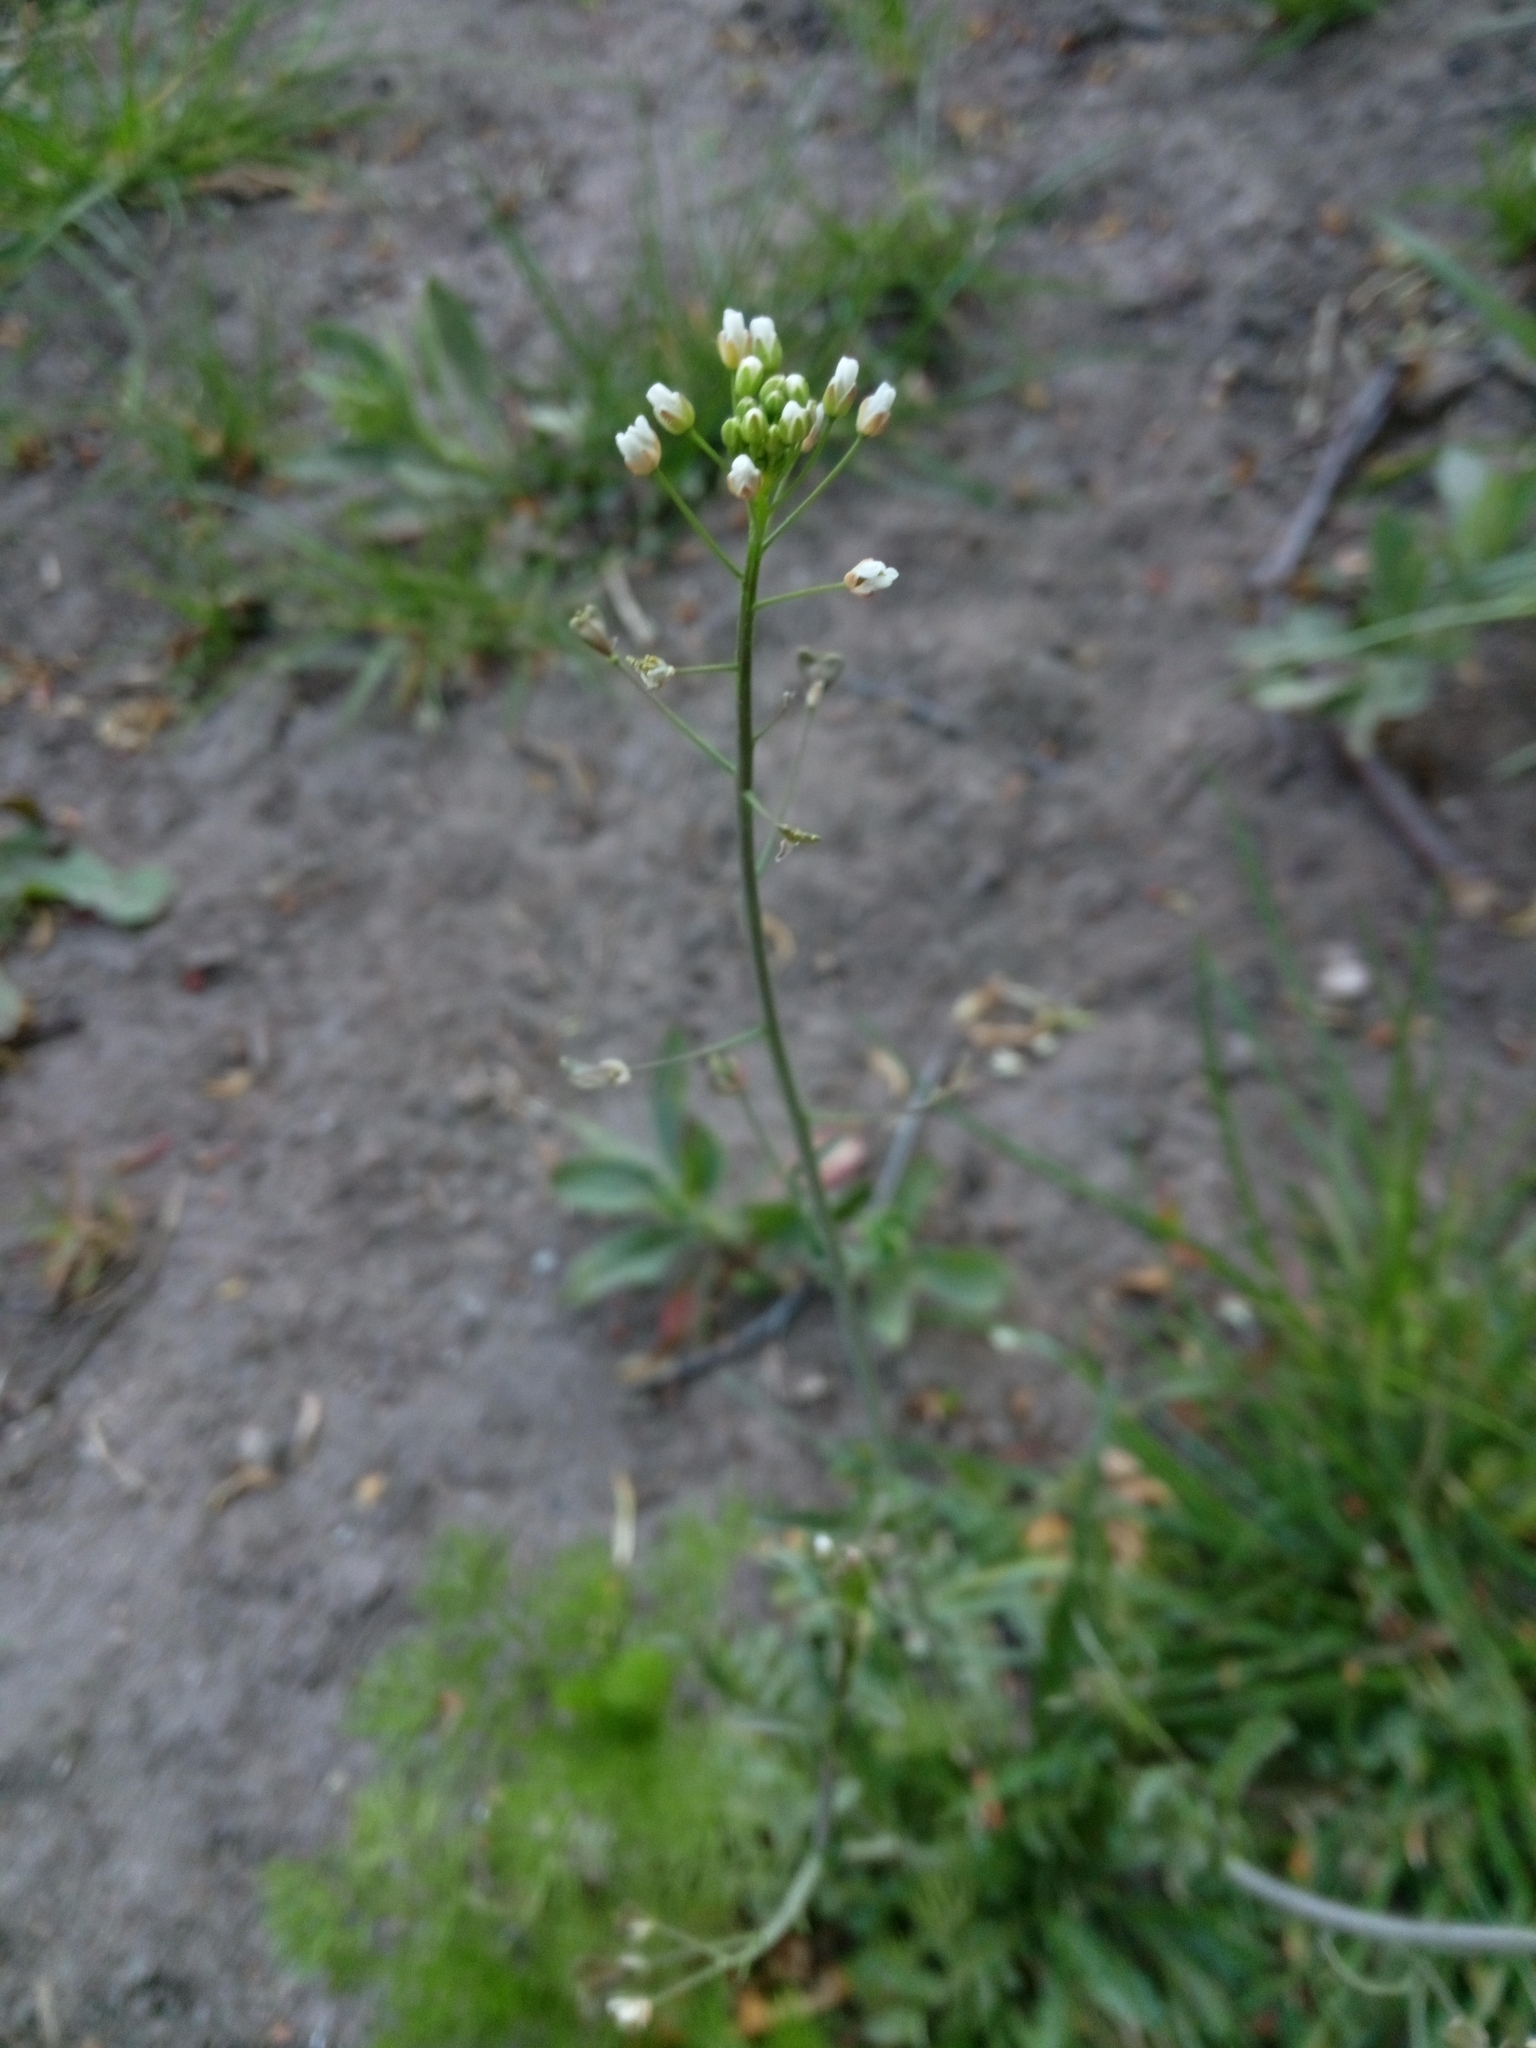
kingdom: Plantae
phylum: Tracheophyta
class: Magnoliopsida
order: Brassicales
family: Brassicaceae
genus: Capsella
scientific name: Capsella bursa-pastoris
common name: Shepherd's purse
